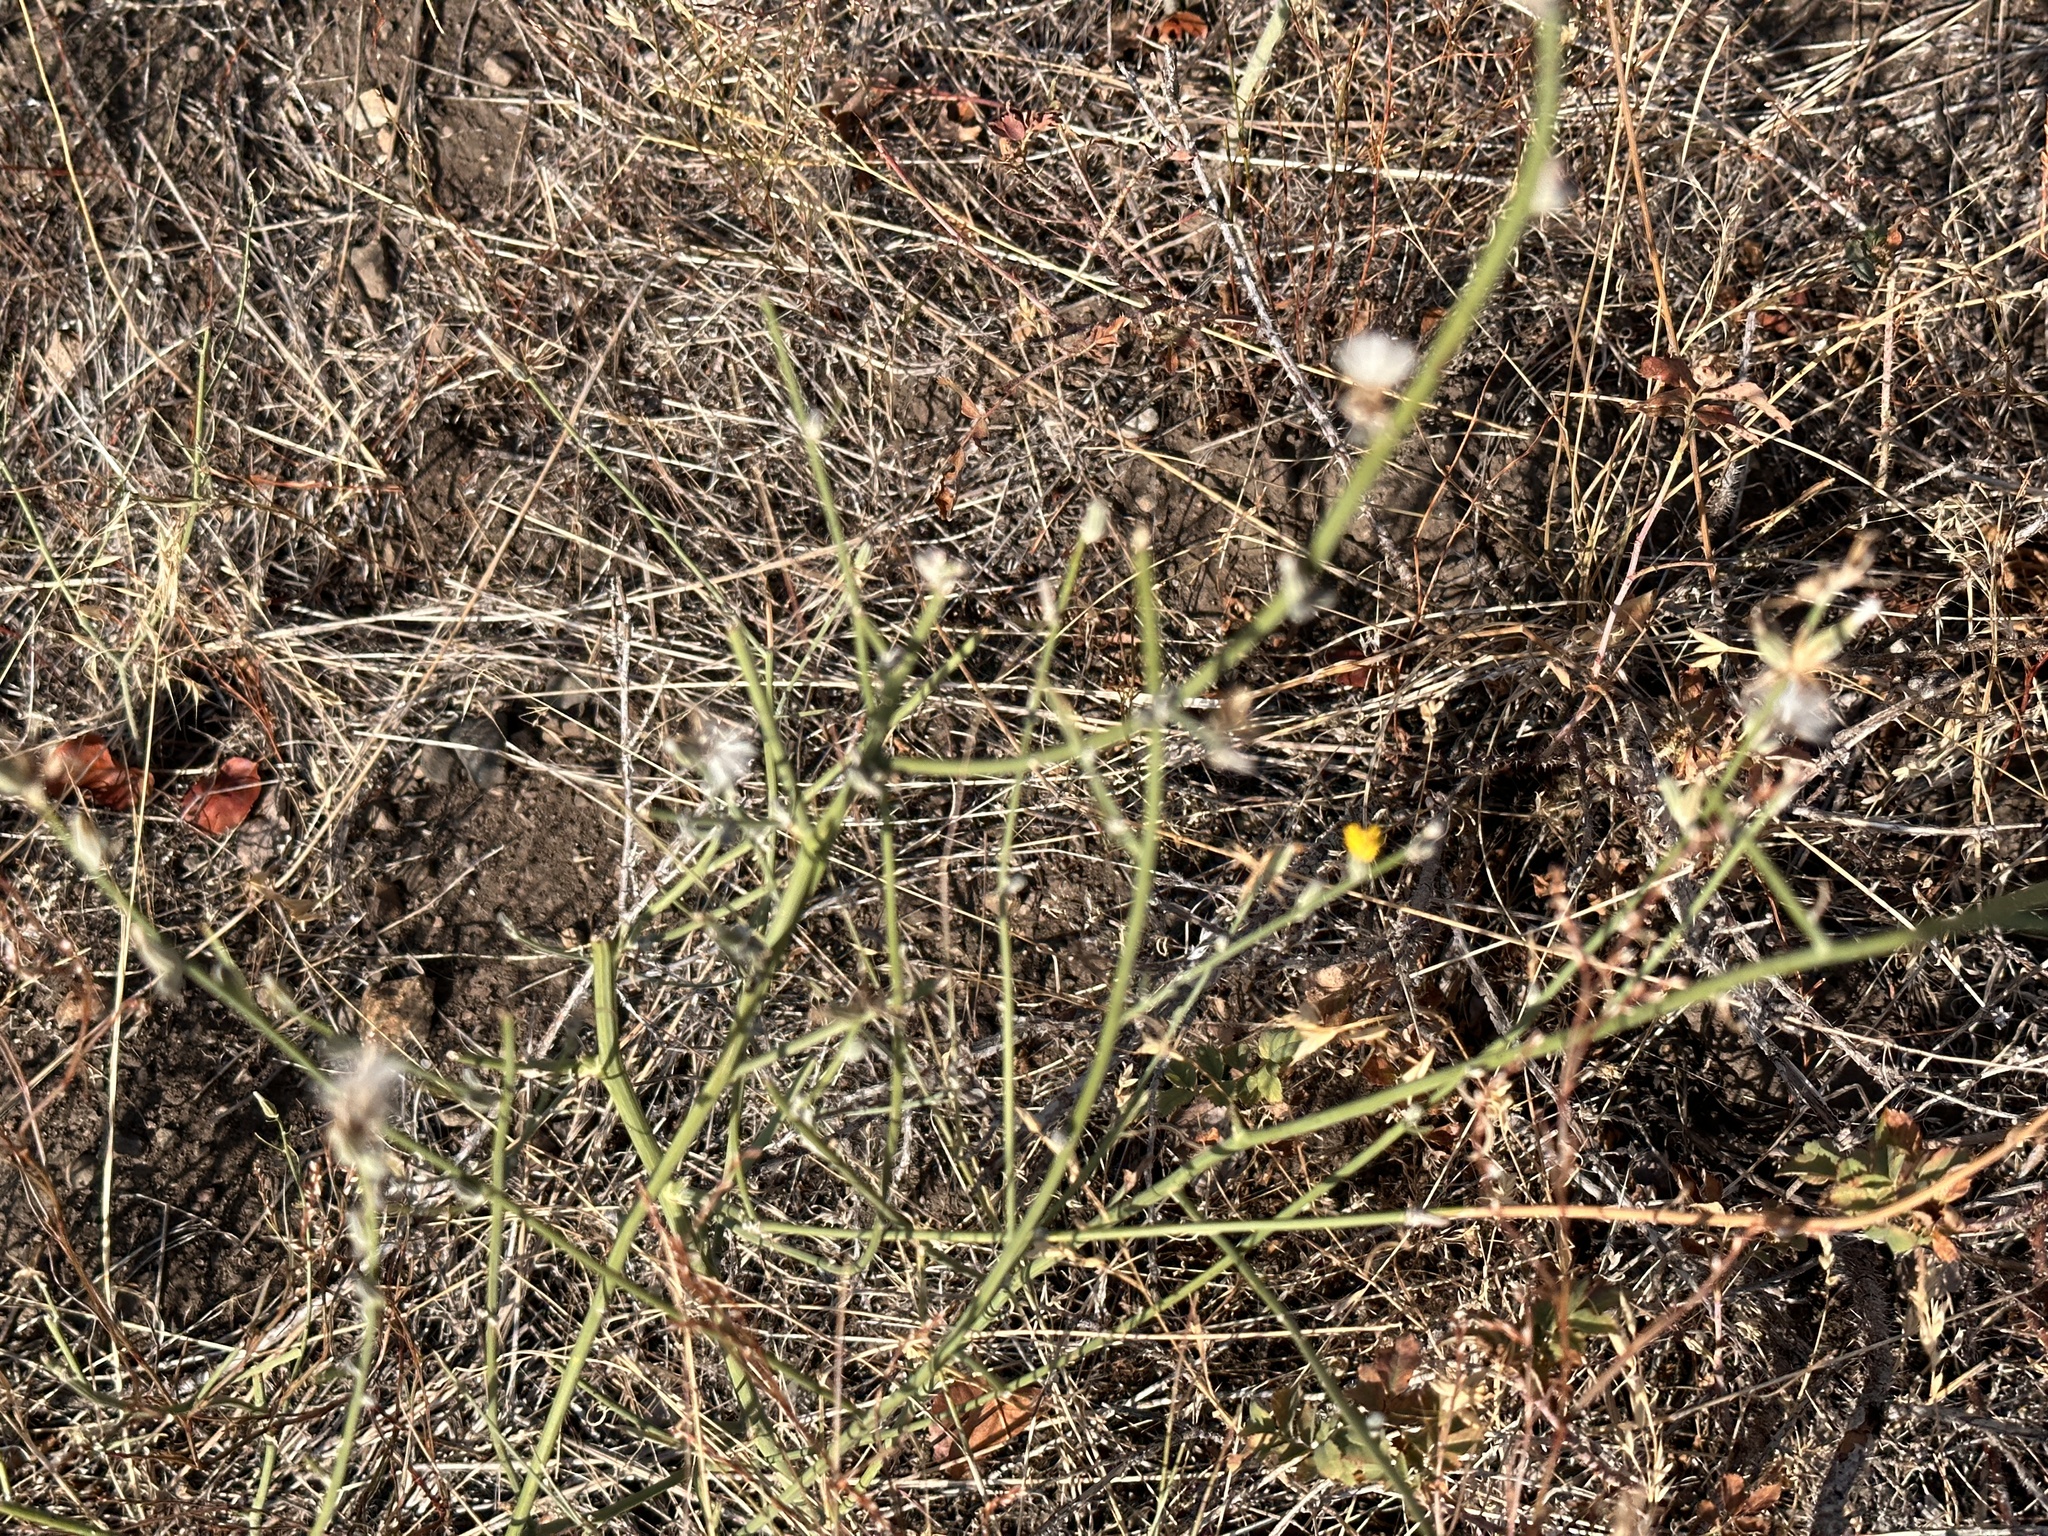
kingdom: Plantae
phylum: Tracheophyta
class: Magnoliopsida
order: Asterales
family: Asteraceae
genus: Chondrilla
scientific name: Chondrilla juncea
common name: Skeleton weed
